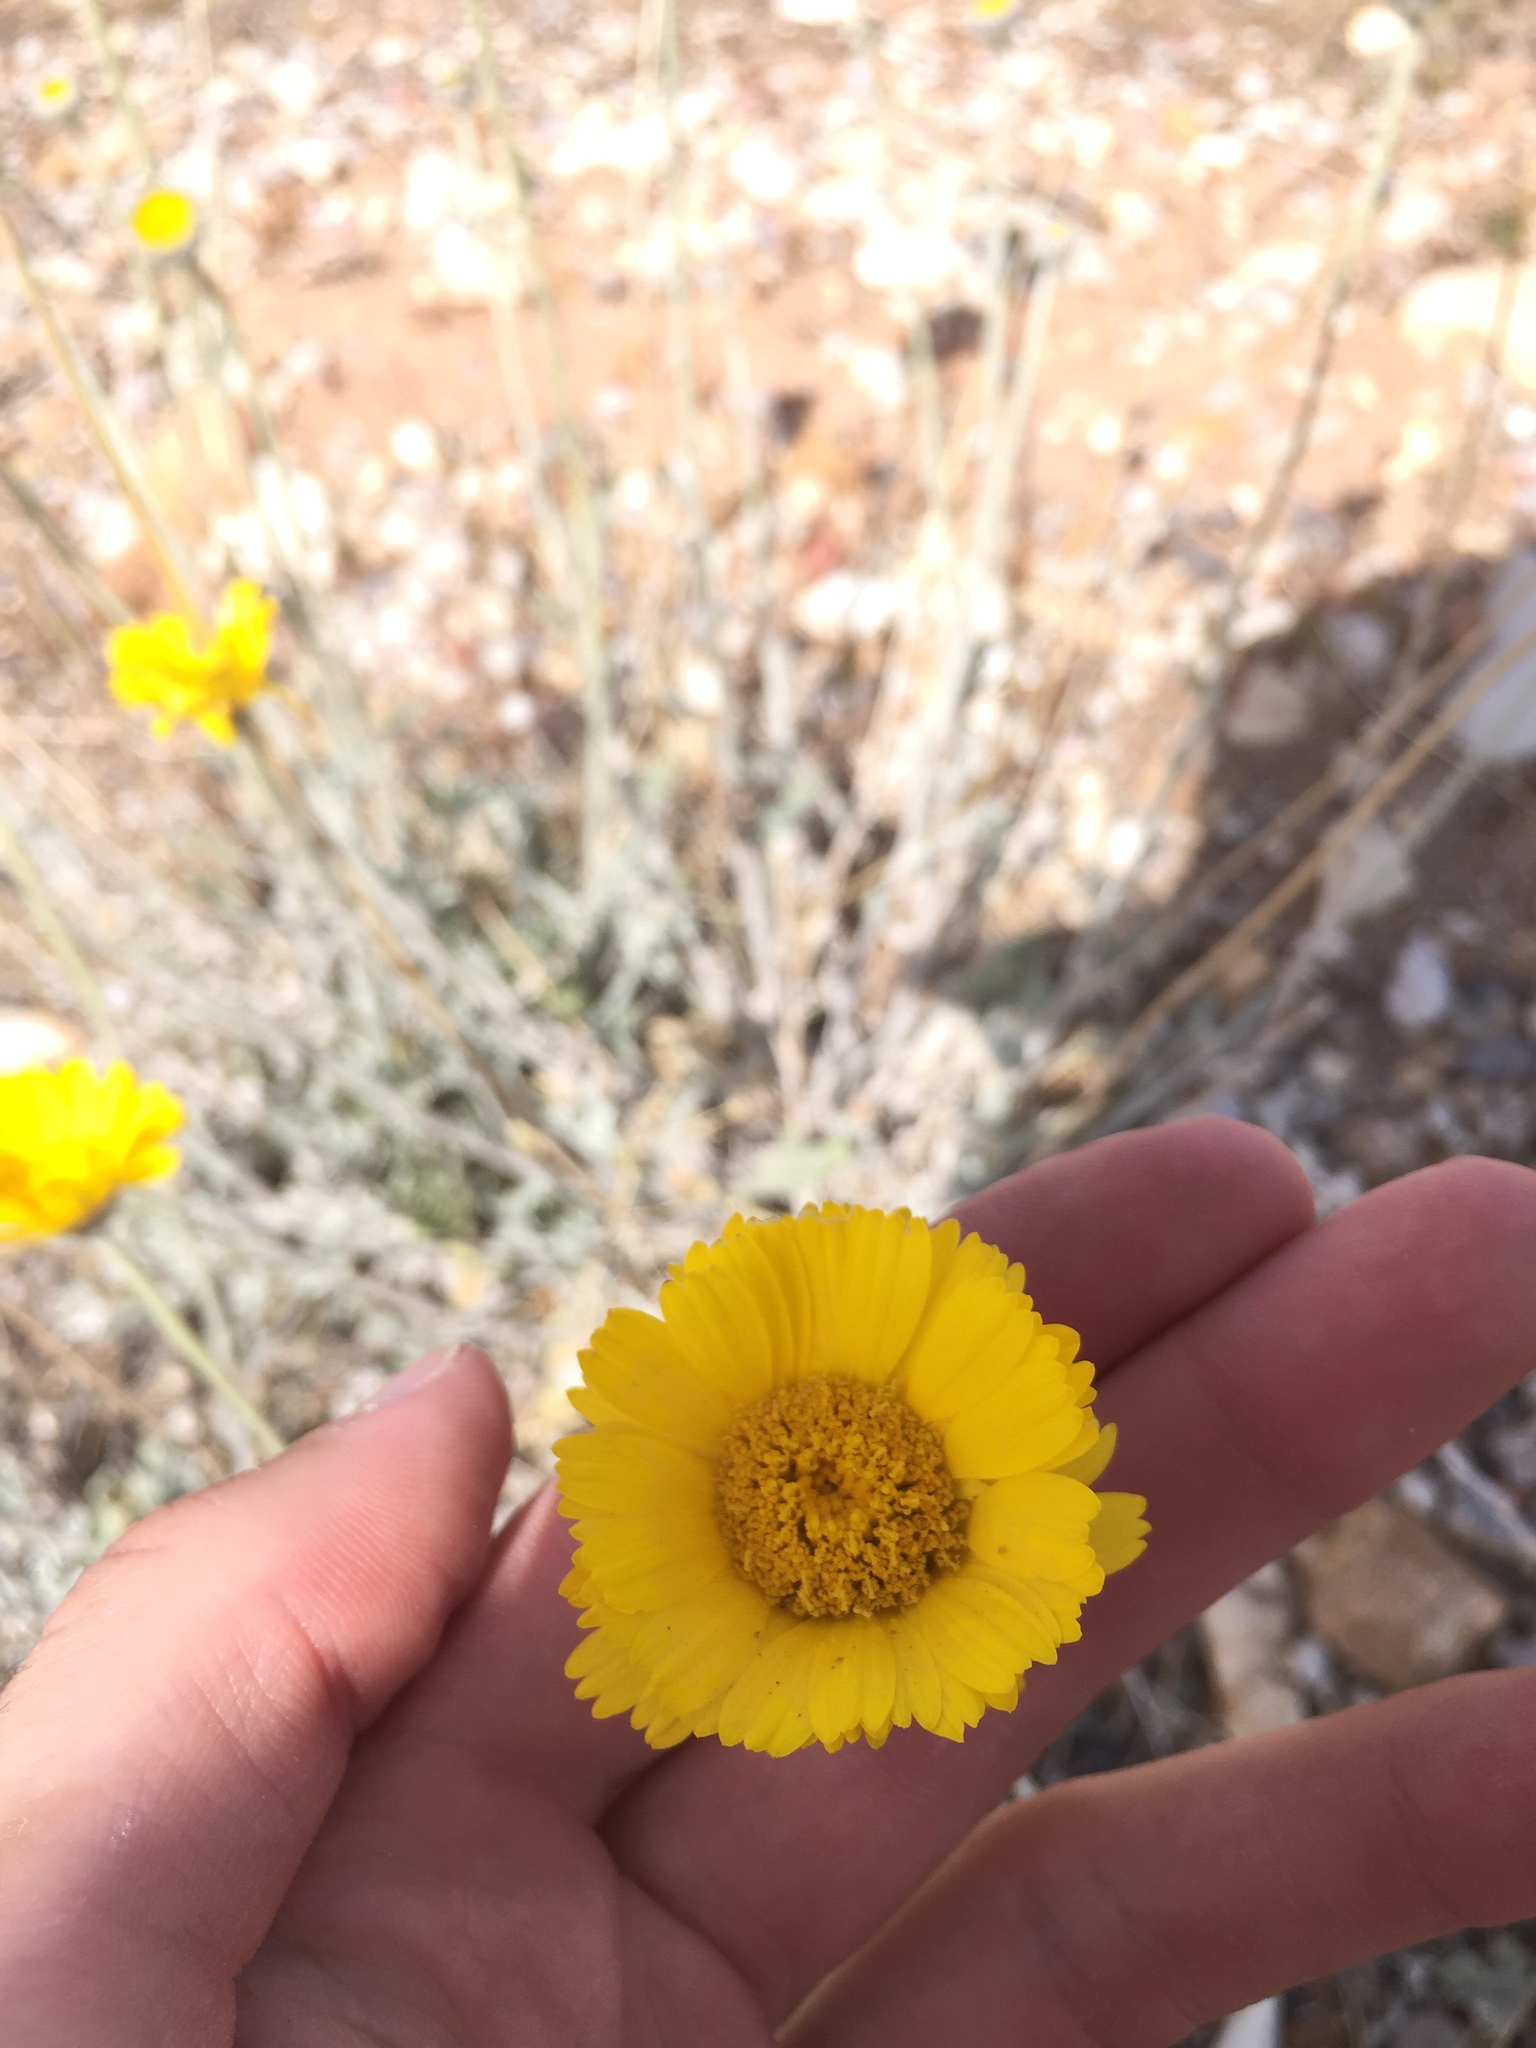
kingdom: Plantae
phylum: Tracheophyta
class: Magnoliopsida
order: Asterales
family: Asteraceae
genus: Baileya
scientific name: Baileya multiradiata
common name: Desert-marigold
